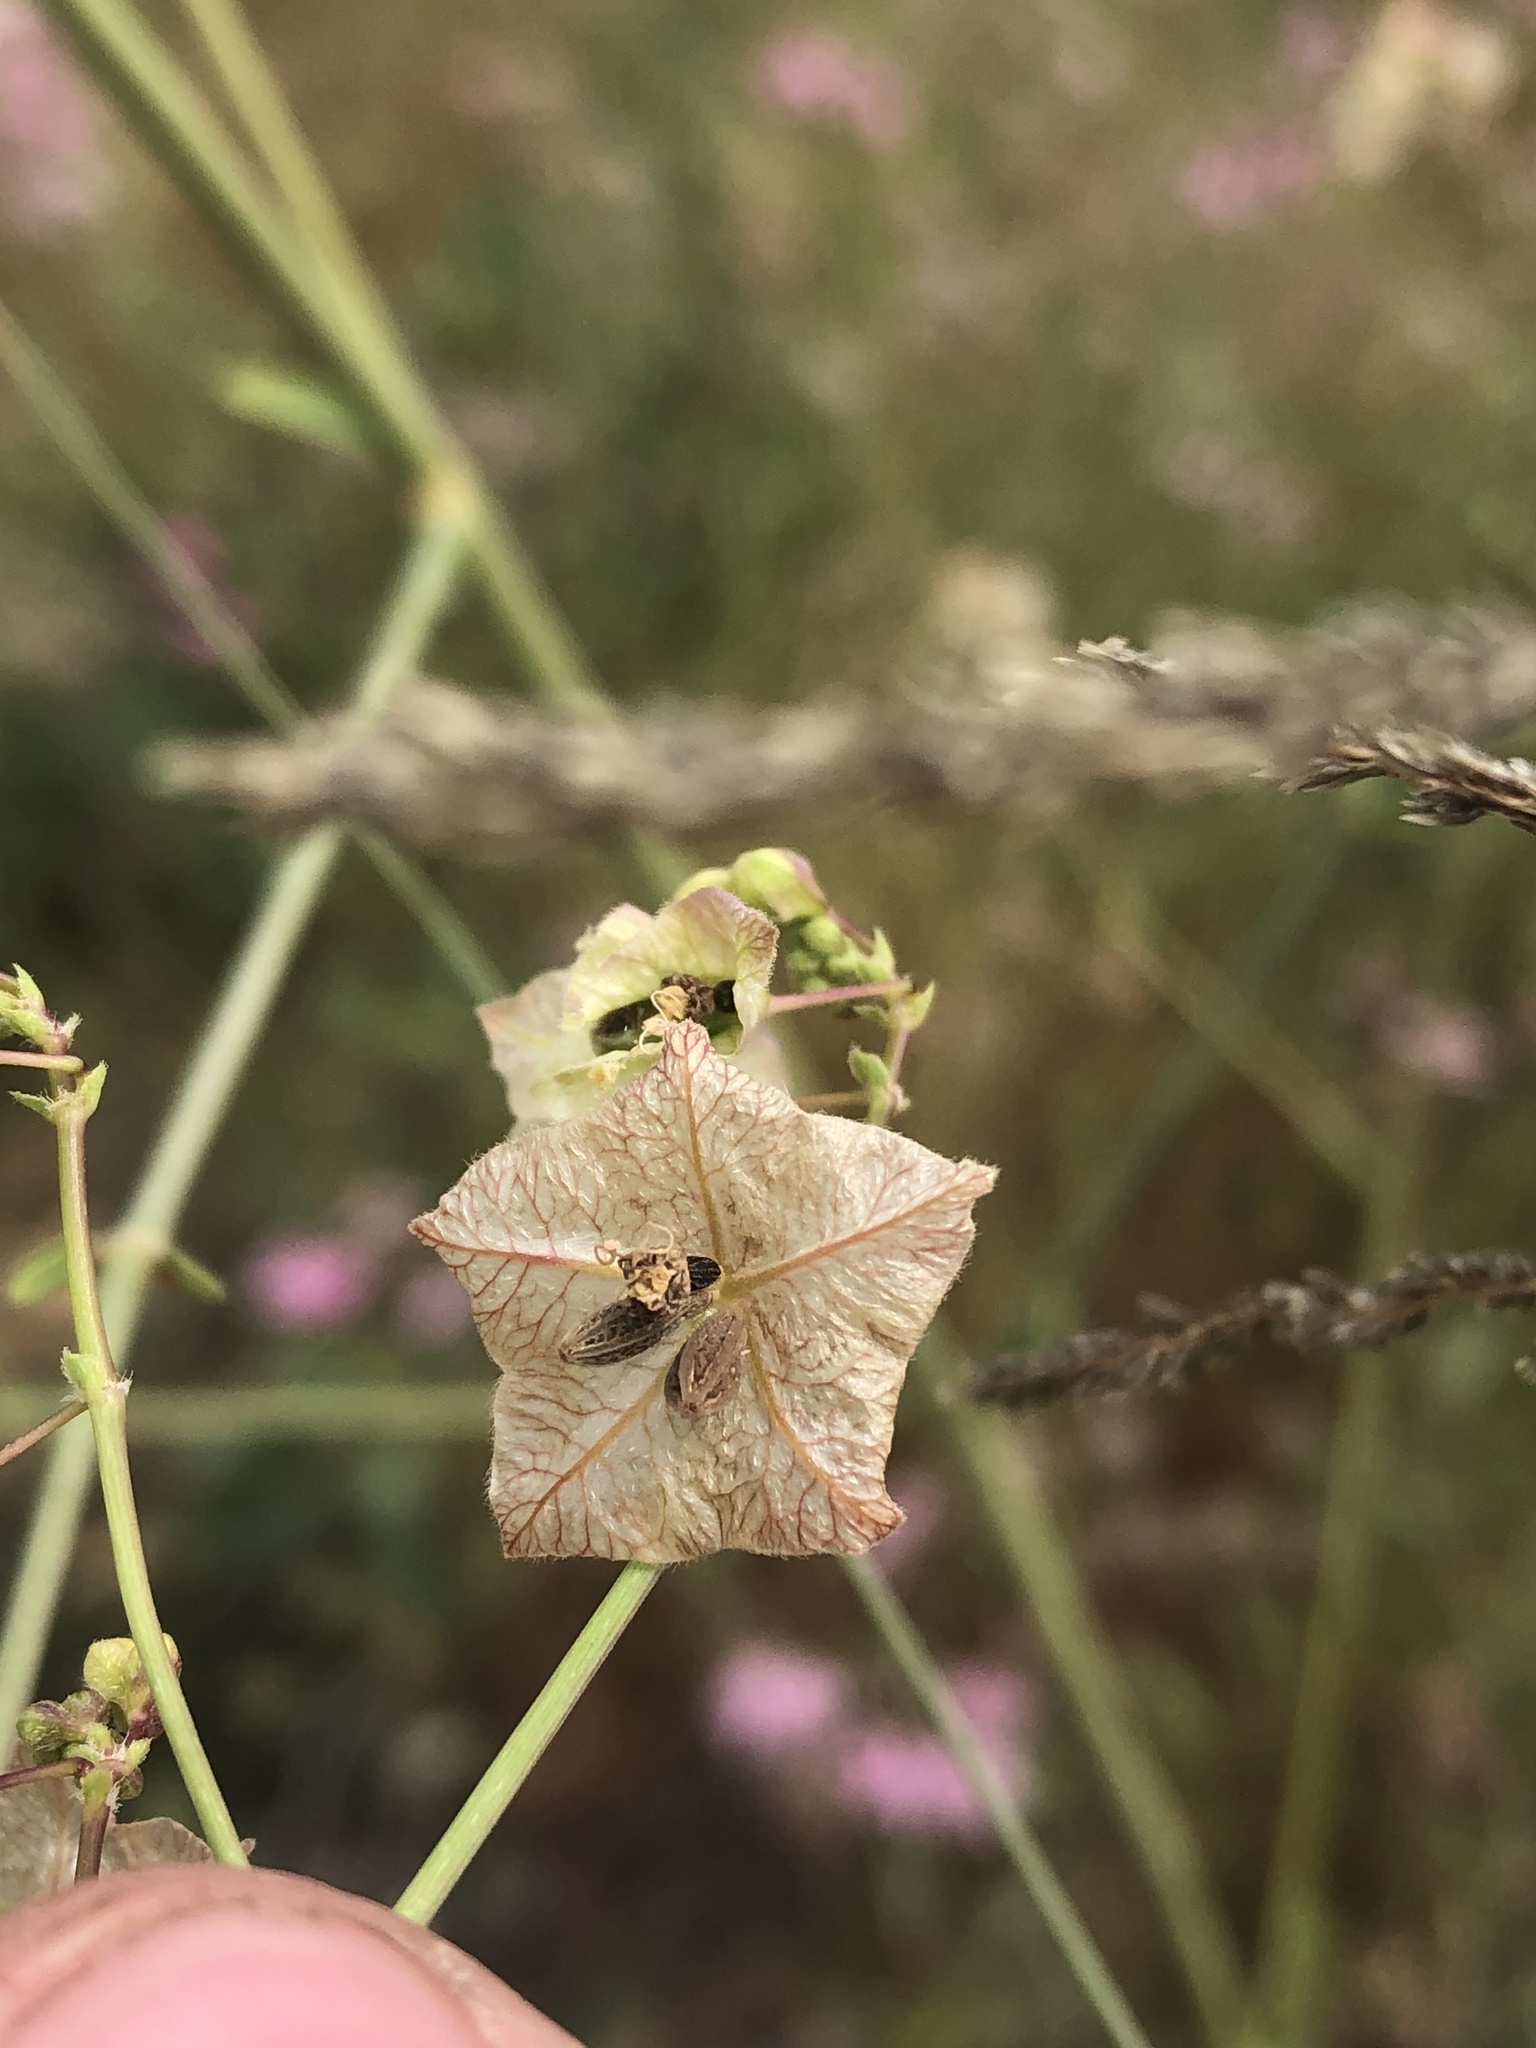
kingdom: Plantae
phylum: Tracheophyta
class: Magnoliopsida
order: Caryophyllales
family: Nyctaginaceae
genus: Mirabilis
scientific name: Mirabilis glabra
